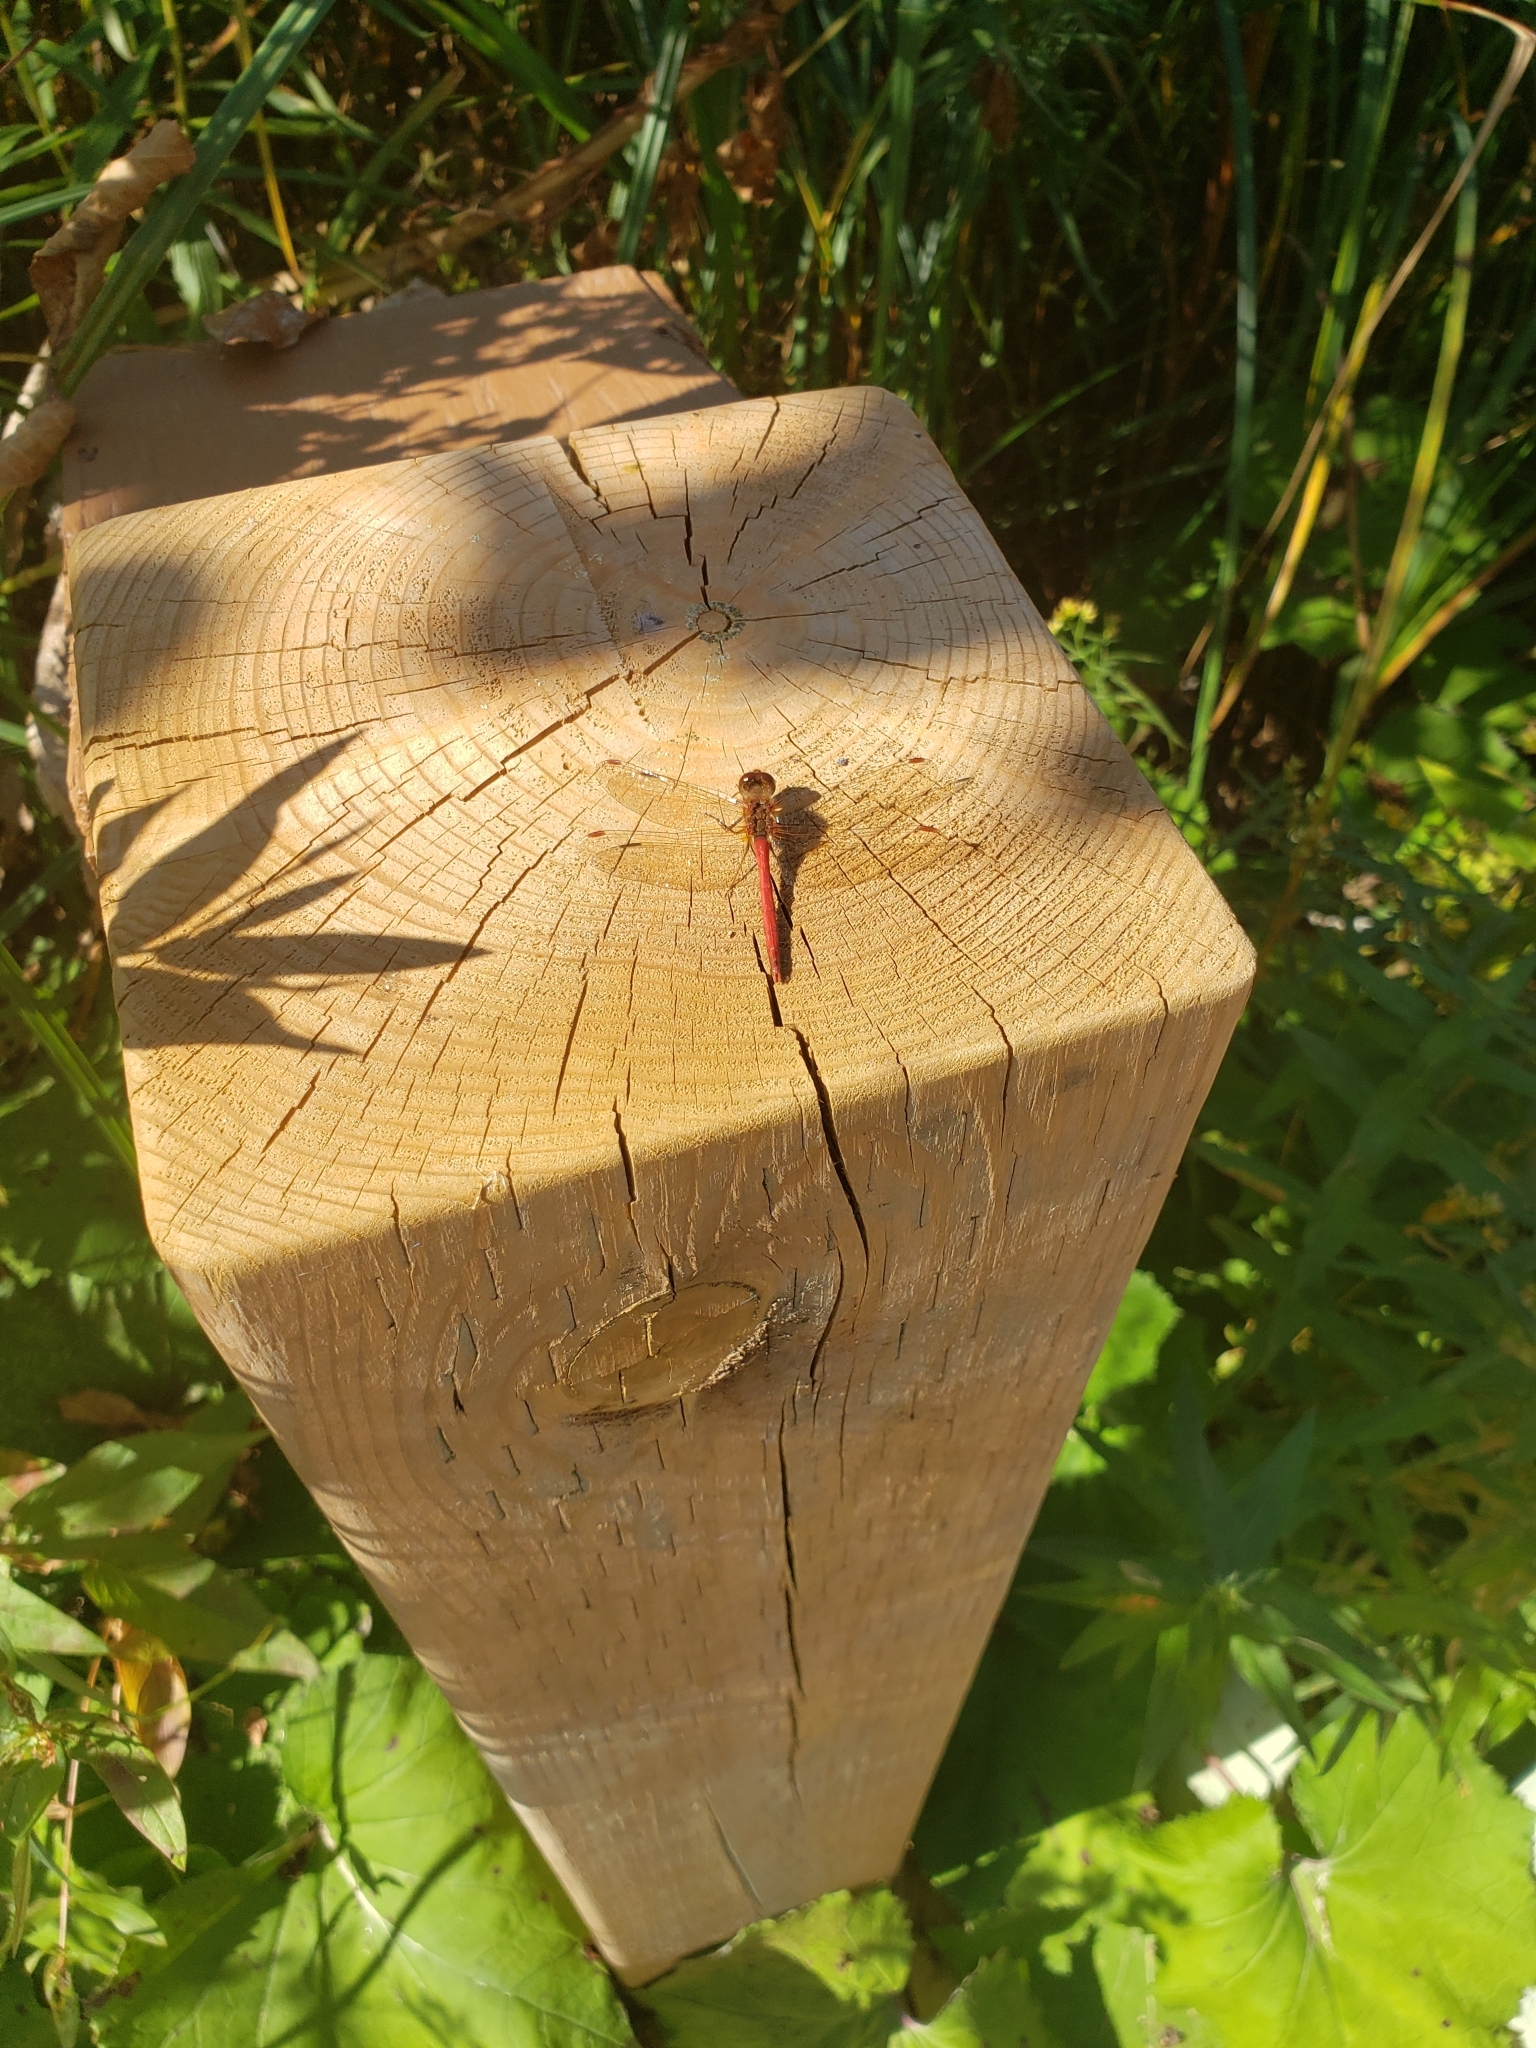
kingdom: Animalia
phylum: Arthropoda
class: Insecta
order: Odonata
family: Libellulidae
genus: Sympetrum
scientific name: Sympetrum vicinum
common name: Autumn meadowhawk
